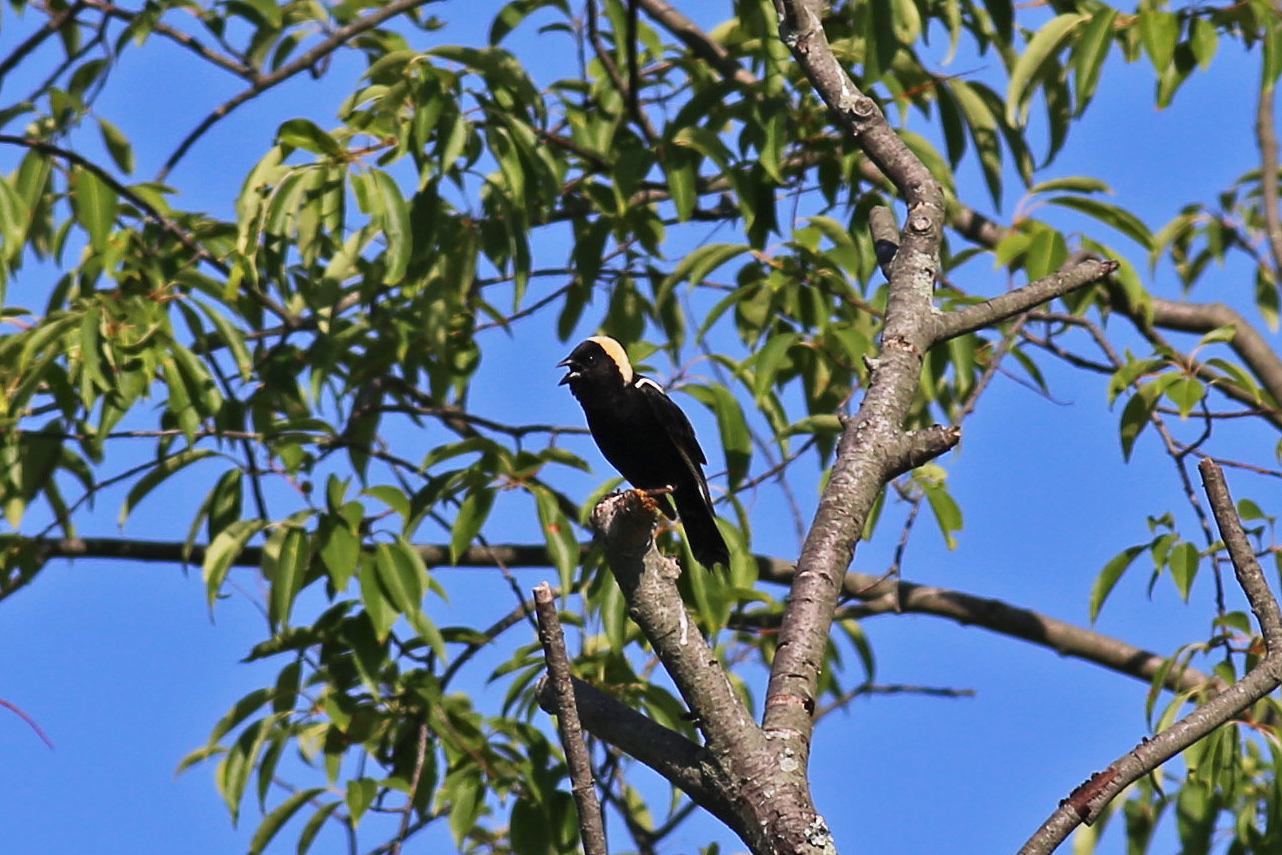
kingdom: Animalia
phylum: Chordata
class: Aves
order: Passeriformes
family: Icteridae
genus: Dolichonyx
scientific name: Dolichonyx oryzivorus
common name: Bobolink
